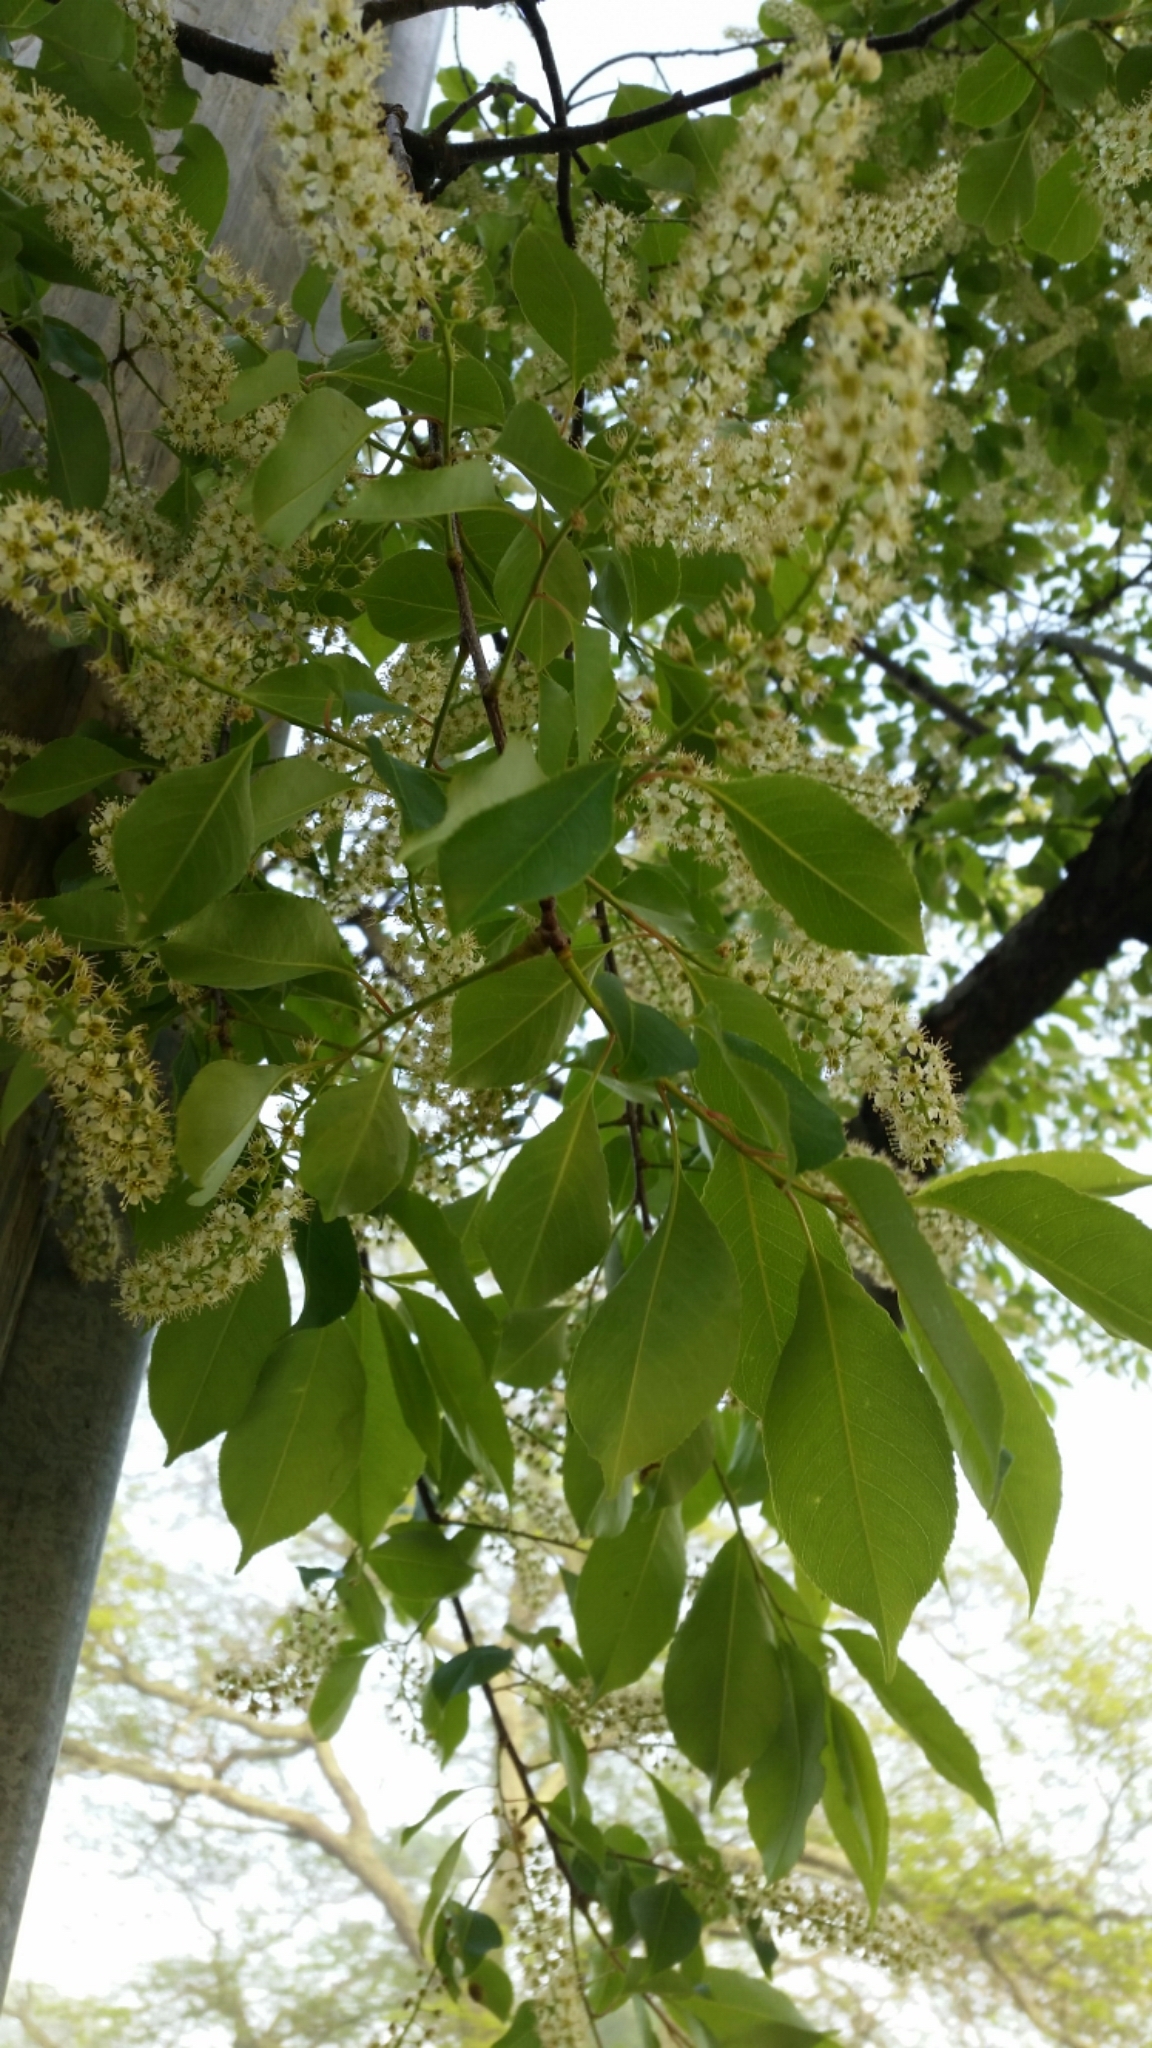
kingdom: Plantae
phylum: Tracheophyta
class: Magnoliopsida
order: Rosales
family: Rosaceae
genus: Prunus
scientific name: Prunus serotina
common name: Black cherry
